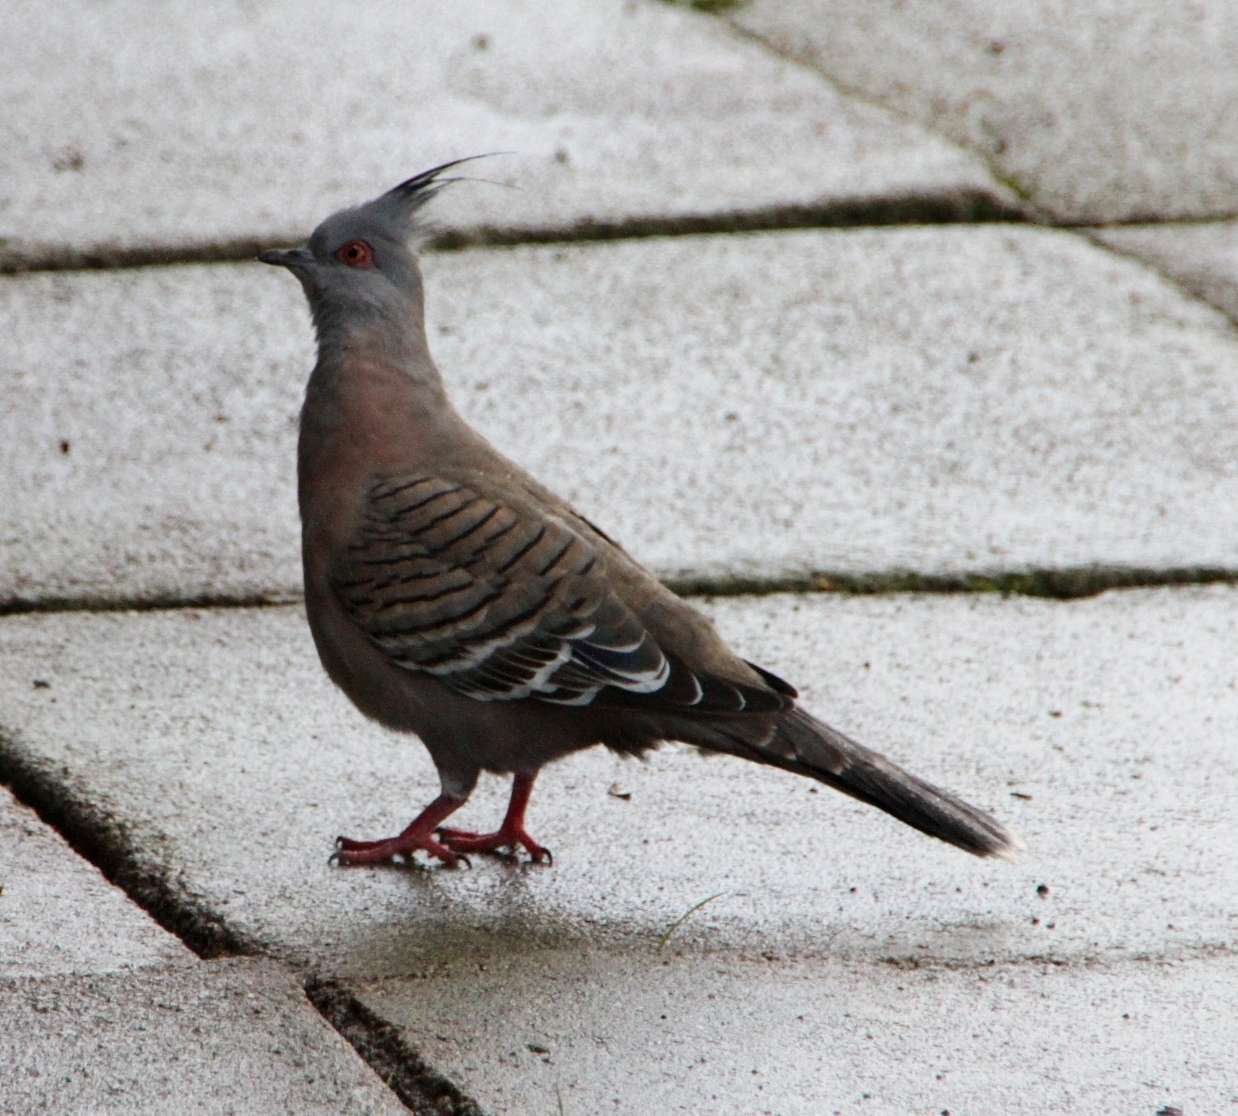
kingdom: Animalia
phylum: Chordata
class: Aves
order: Columbiformes
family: Columbidae
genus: Ocyphaps
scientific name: Ocyphaps lophotes
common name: Crested pigeon
